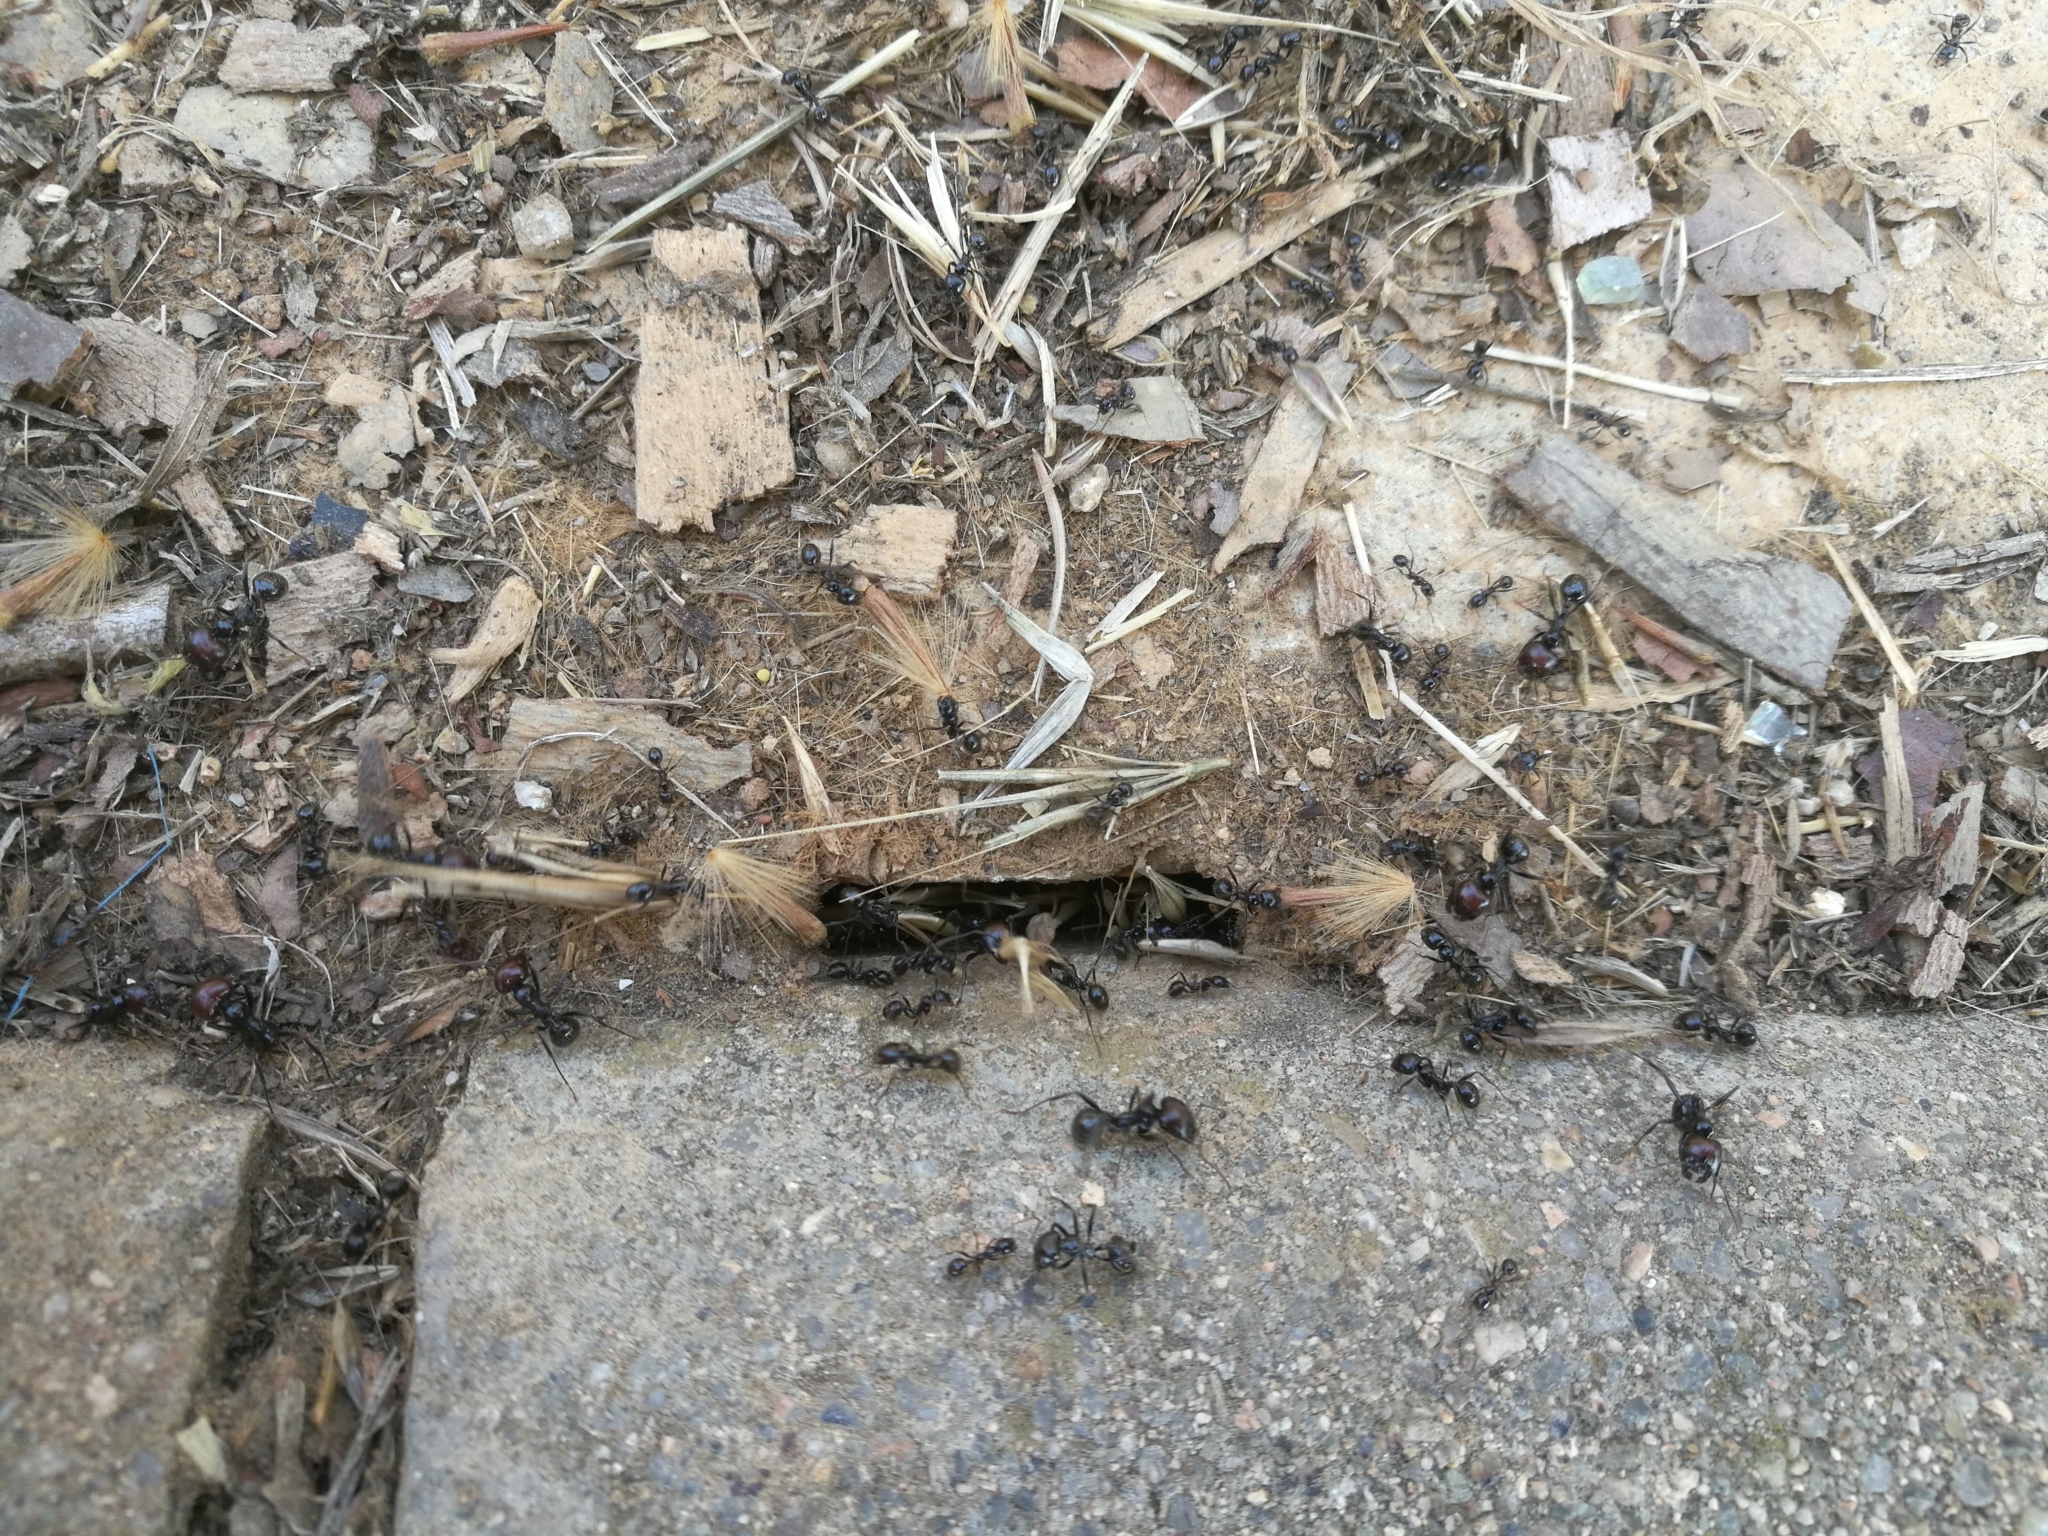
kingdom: Animalia
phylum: Arthropoda
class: Insecta
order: Hymenoptera
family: Formicidae
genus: Messor
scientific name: Messor barbarus
